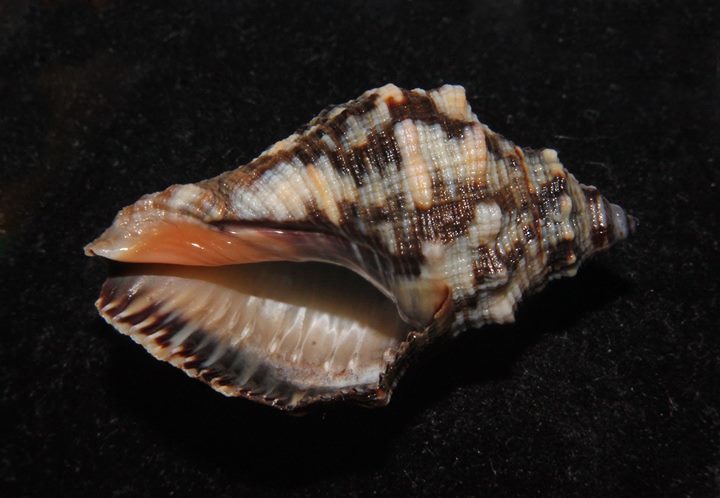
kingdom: Animalia
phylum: Mollusca
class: Gastropoda
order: Neogastropoda
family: Muricidae
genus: Stramonita
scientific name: Stramonita floridana
